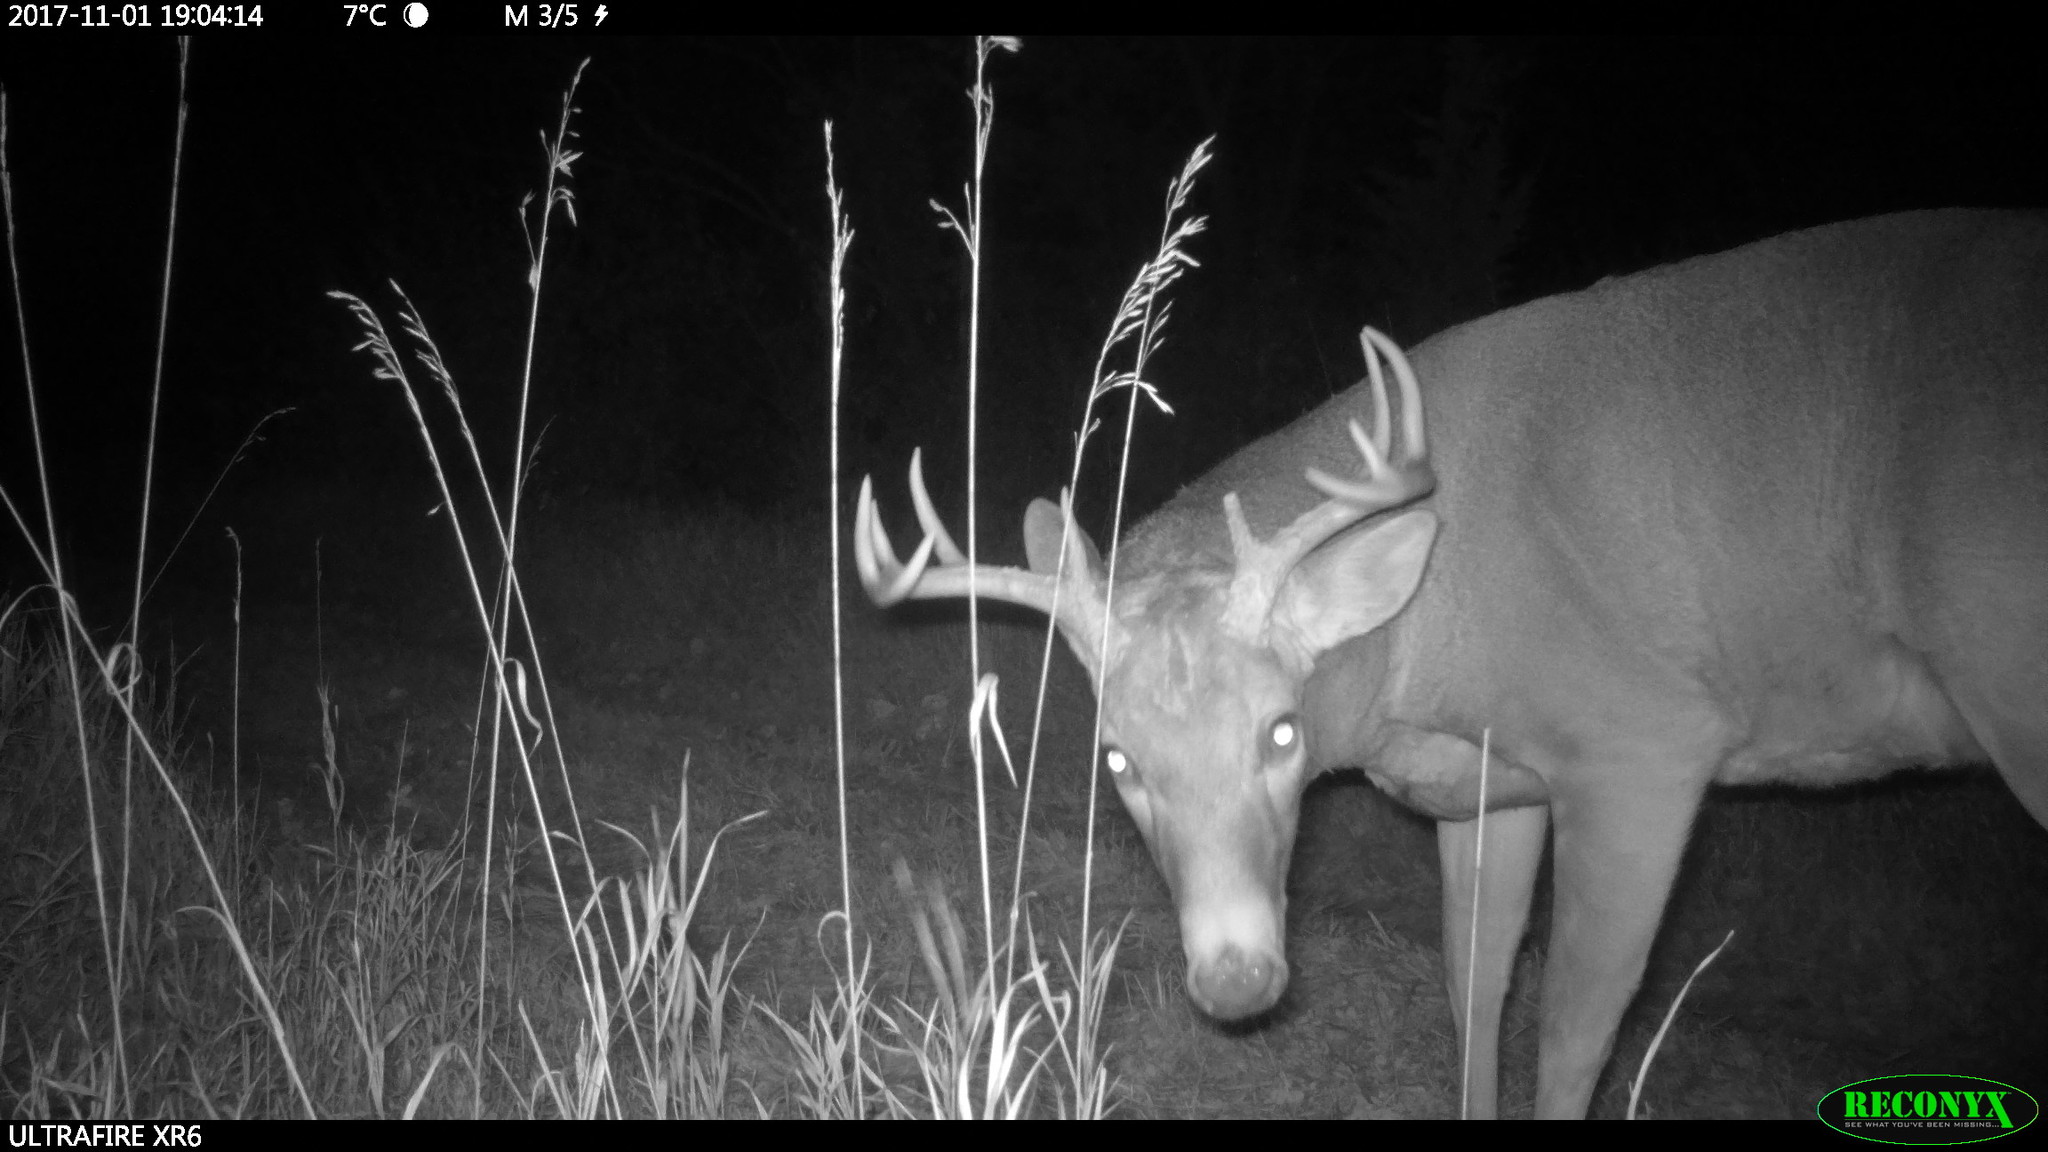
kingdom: Animalia
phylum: Chordata
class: Mammalia
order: Artiodactyla
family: Cervidae
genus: Odocoileus
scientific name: Odocoileus virginianus
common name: White-tailed deer
